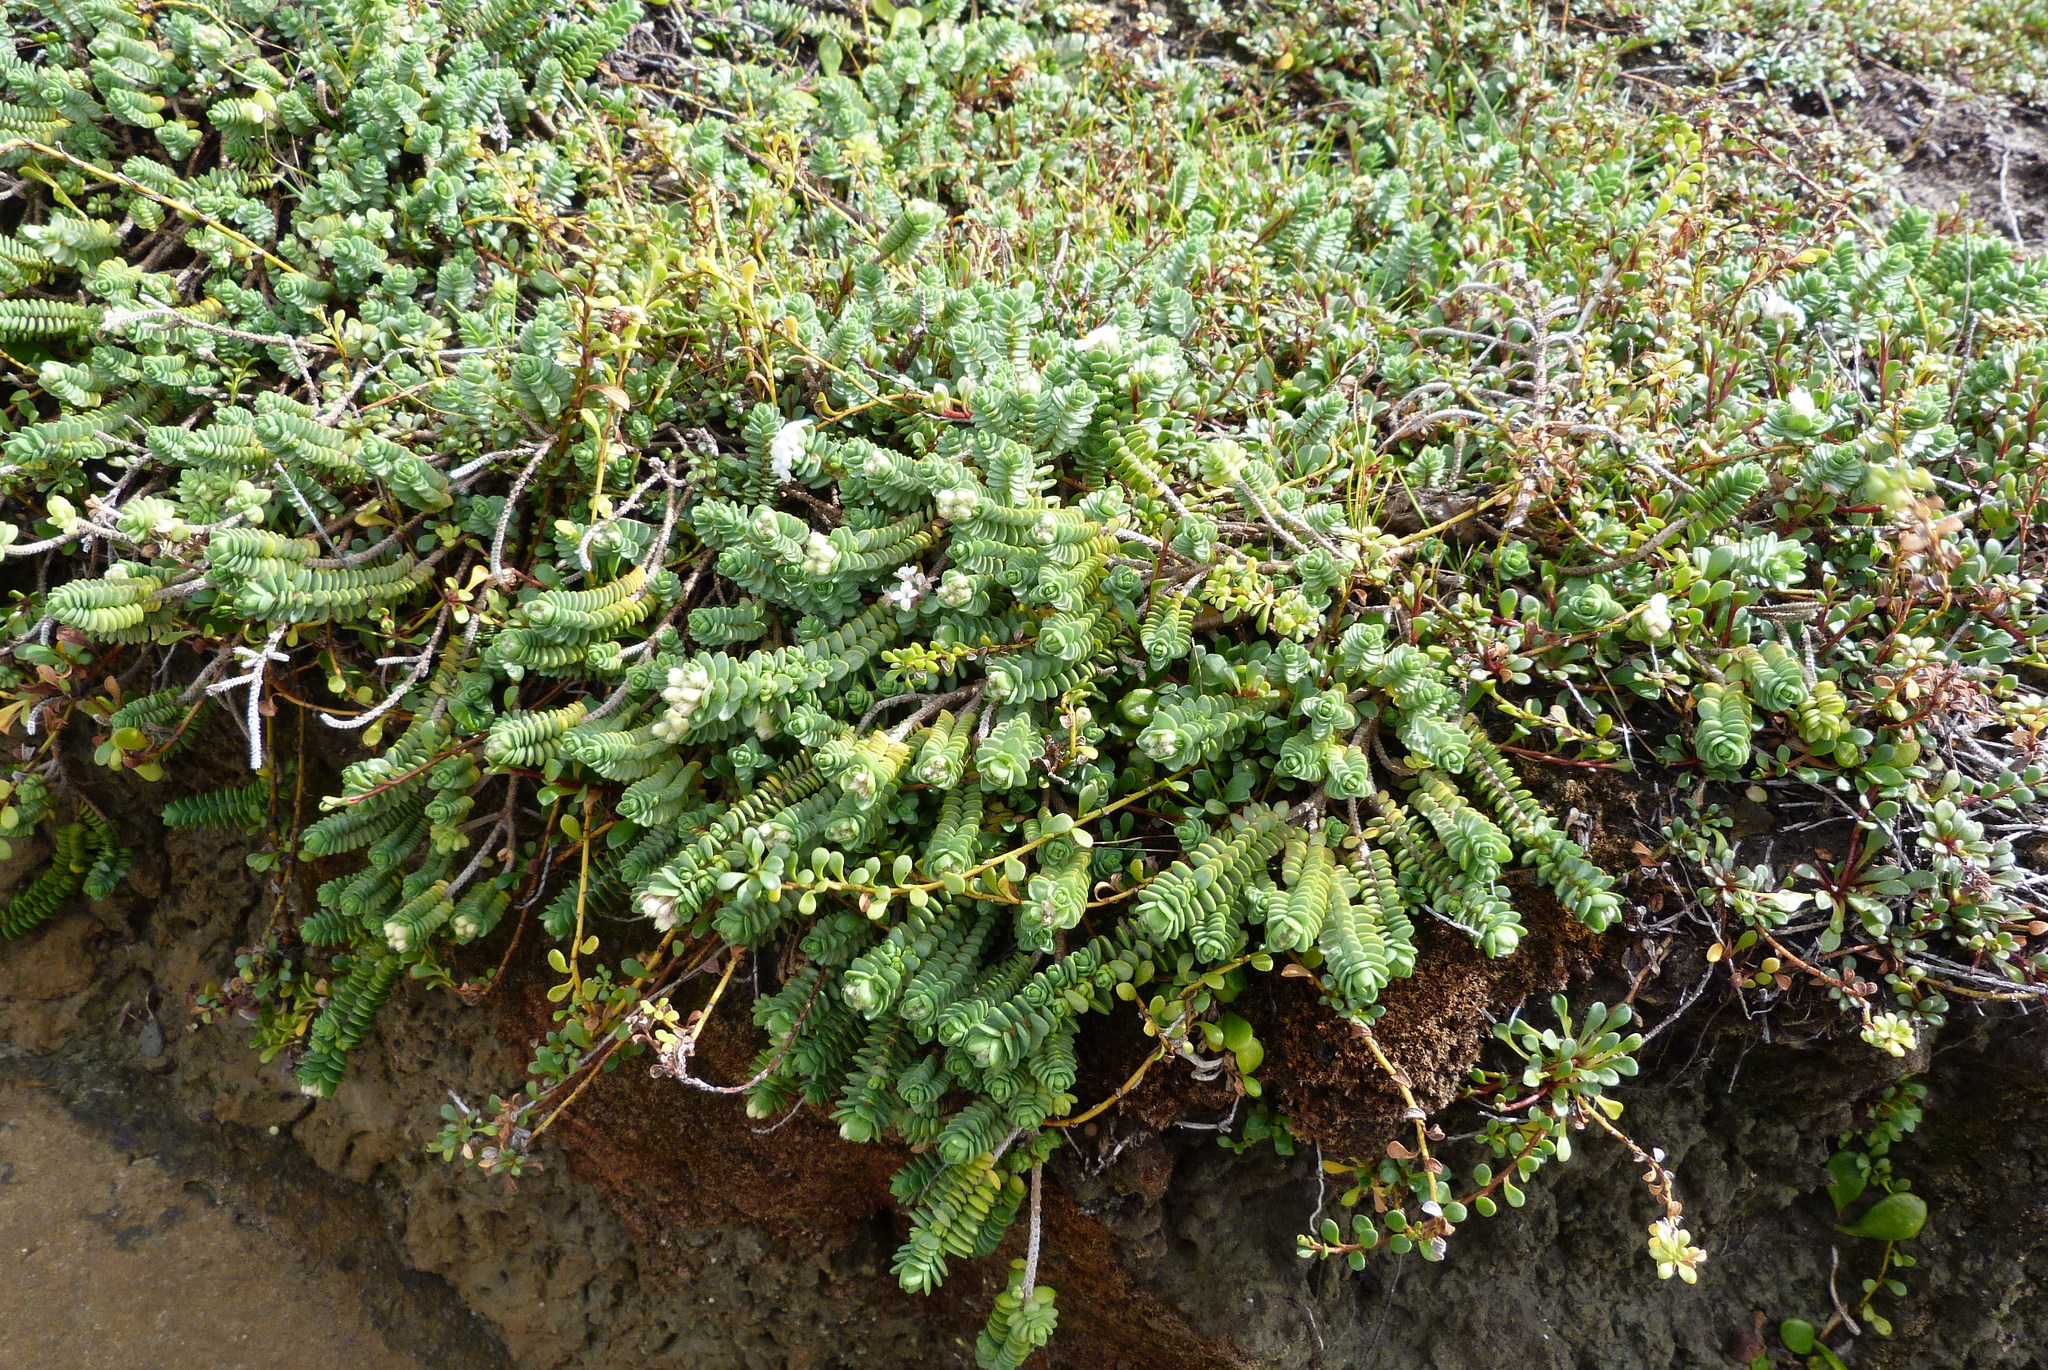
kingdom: Plantae
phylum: Tracheophyta
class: Magnoliopsida
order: Malvales
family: Thymelaeaceae
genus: Pimelea
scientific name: Pimelea
